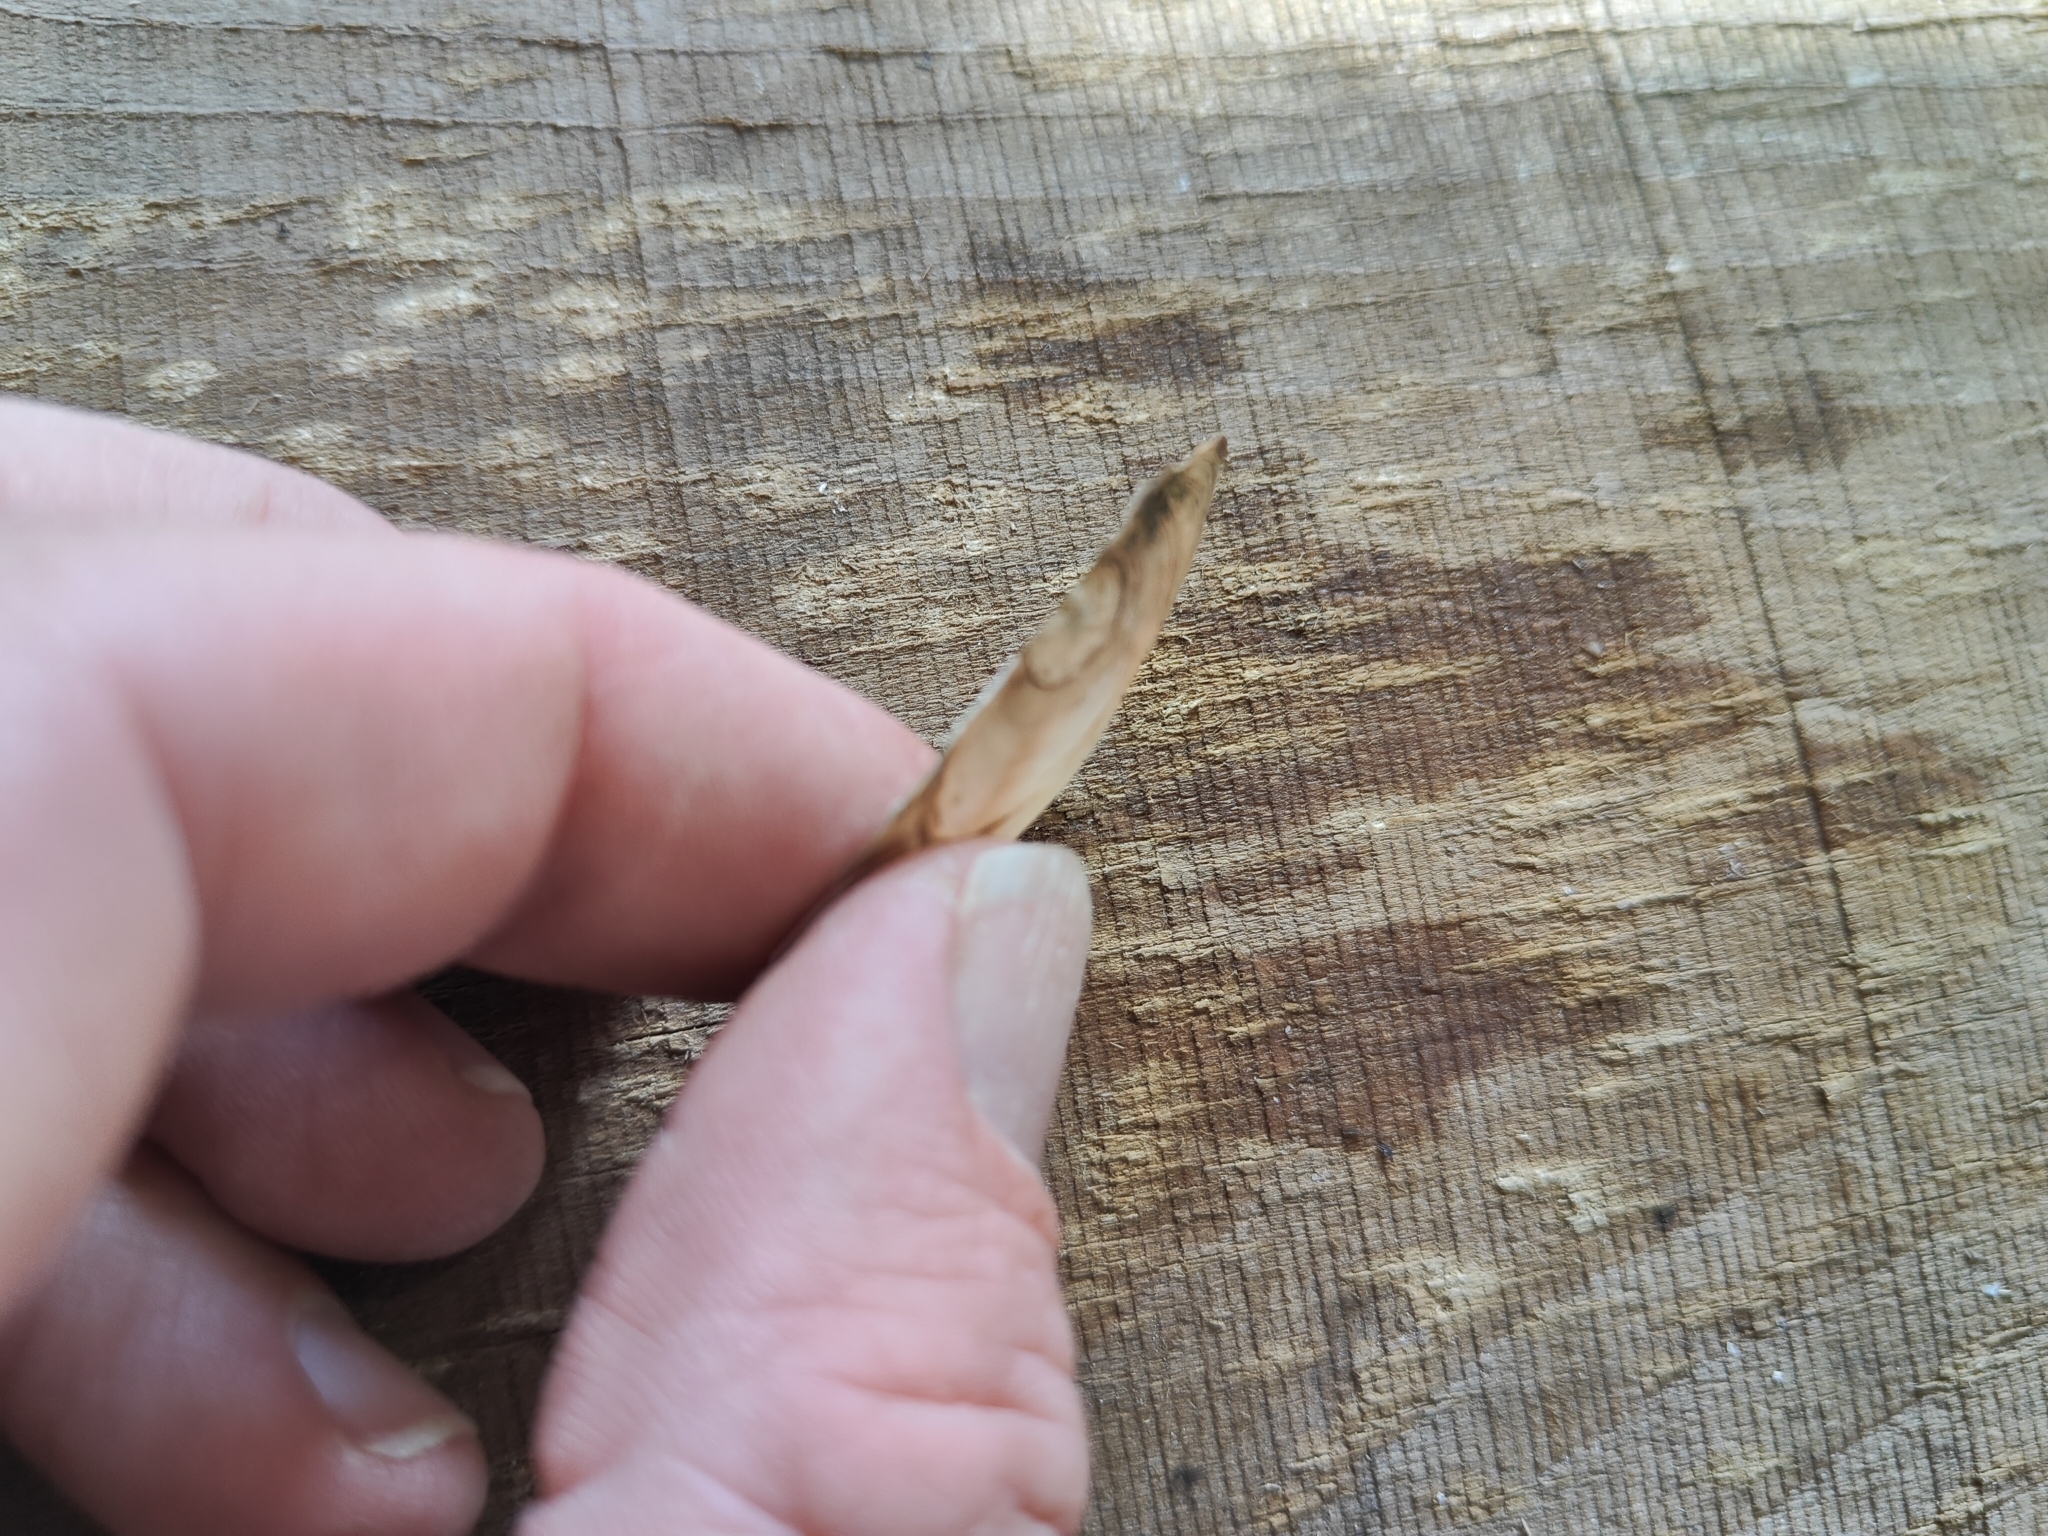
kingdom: Animalia
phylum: Mollusca
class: Bivalvia
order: Unionida
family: Unionidae
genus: Utterbackia
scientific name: Utterbackia imbecillis
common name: Paper pondshell
